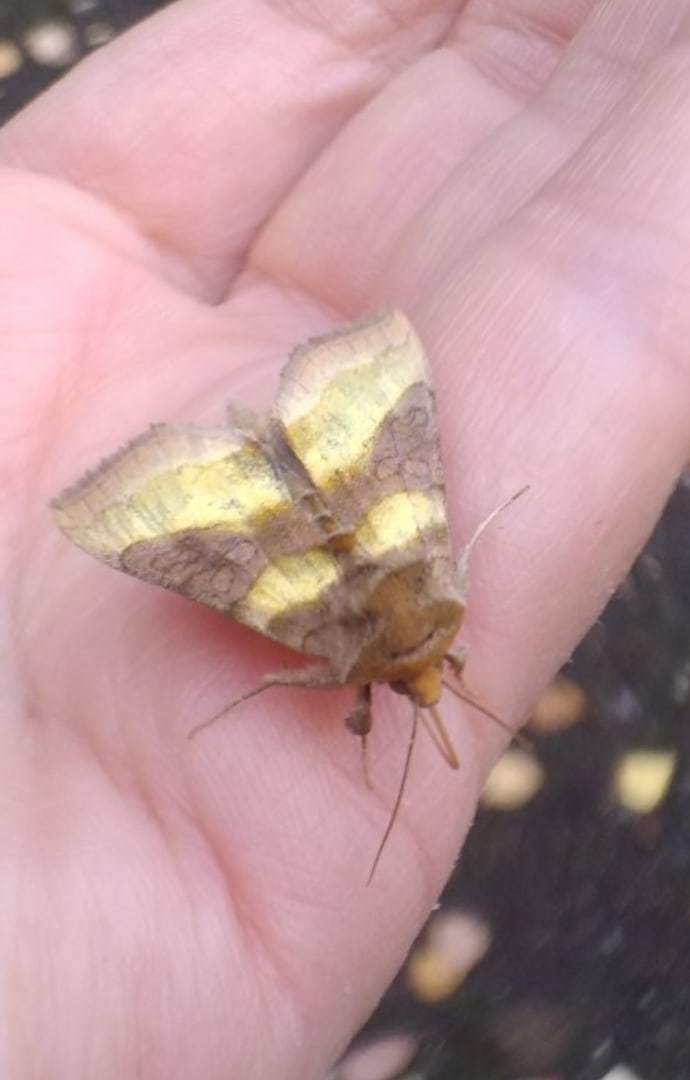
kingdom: Animalia
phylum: Arthropoda
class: Insecta
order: Lepidoptera
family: Noctuidae
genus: Diachrysia
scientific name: Diachrysia chrysitis
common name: Burnished brass
